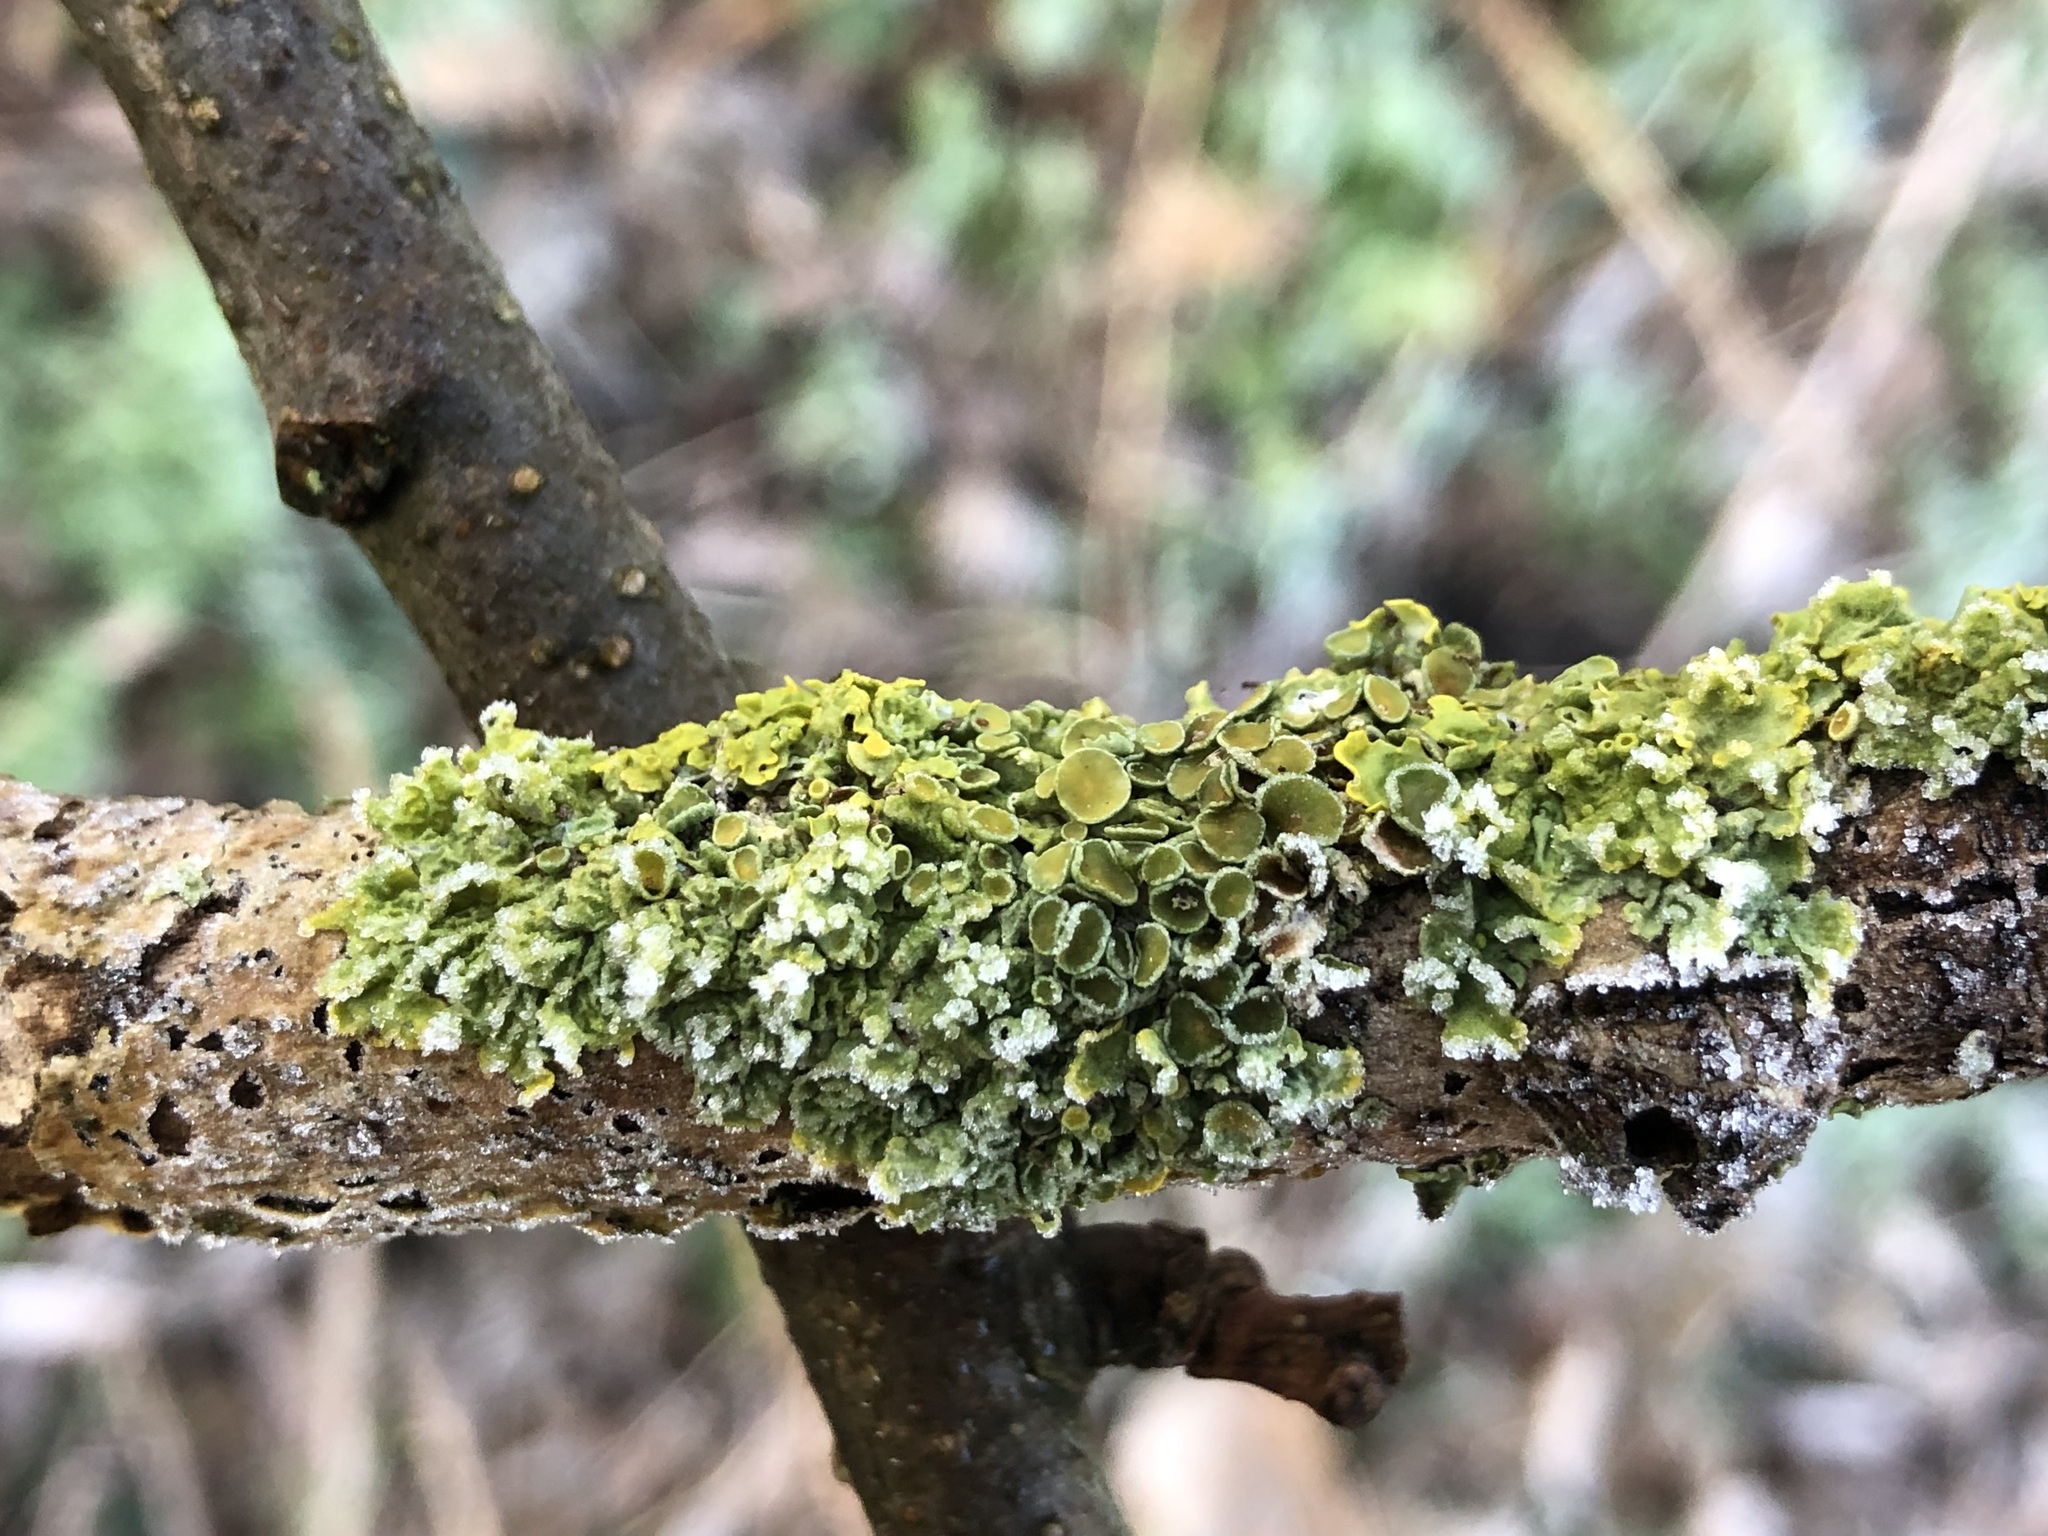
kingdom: Fungi
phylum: Ascomycota
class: Lecanoromycetes
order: Teloschistales
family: Teloschistaceae
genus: Xanthoria
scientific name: Xanthoria parietina
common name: Common orange lichen
